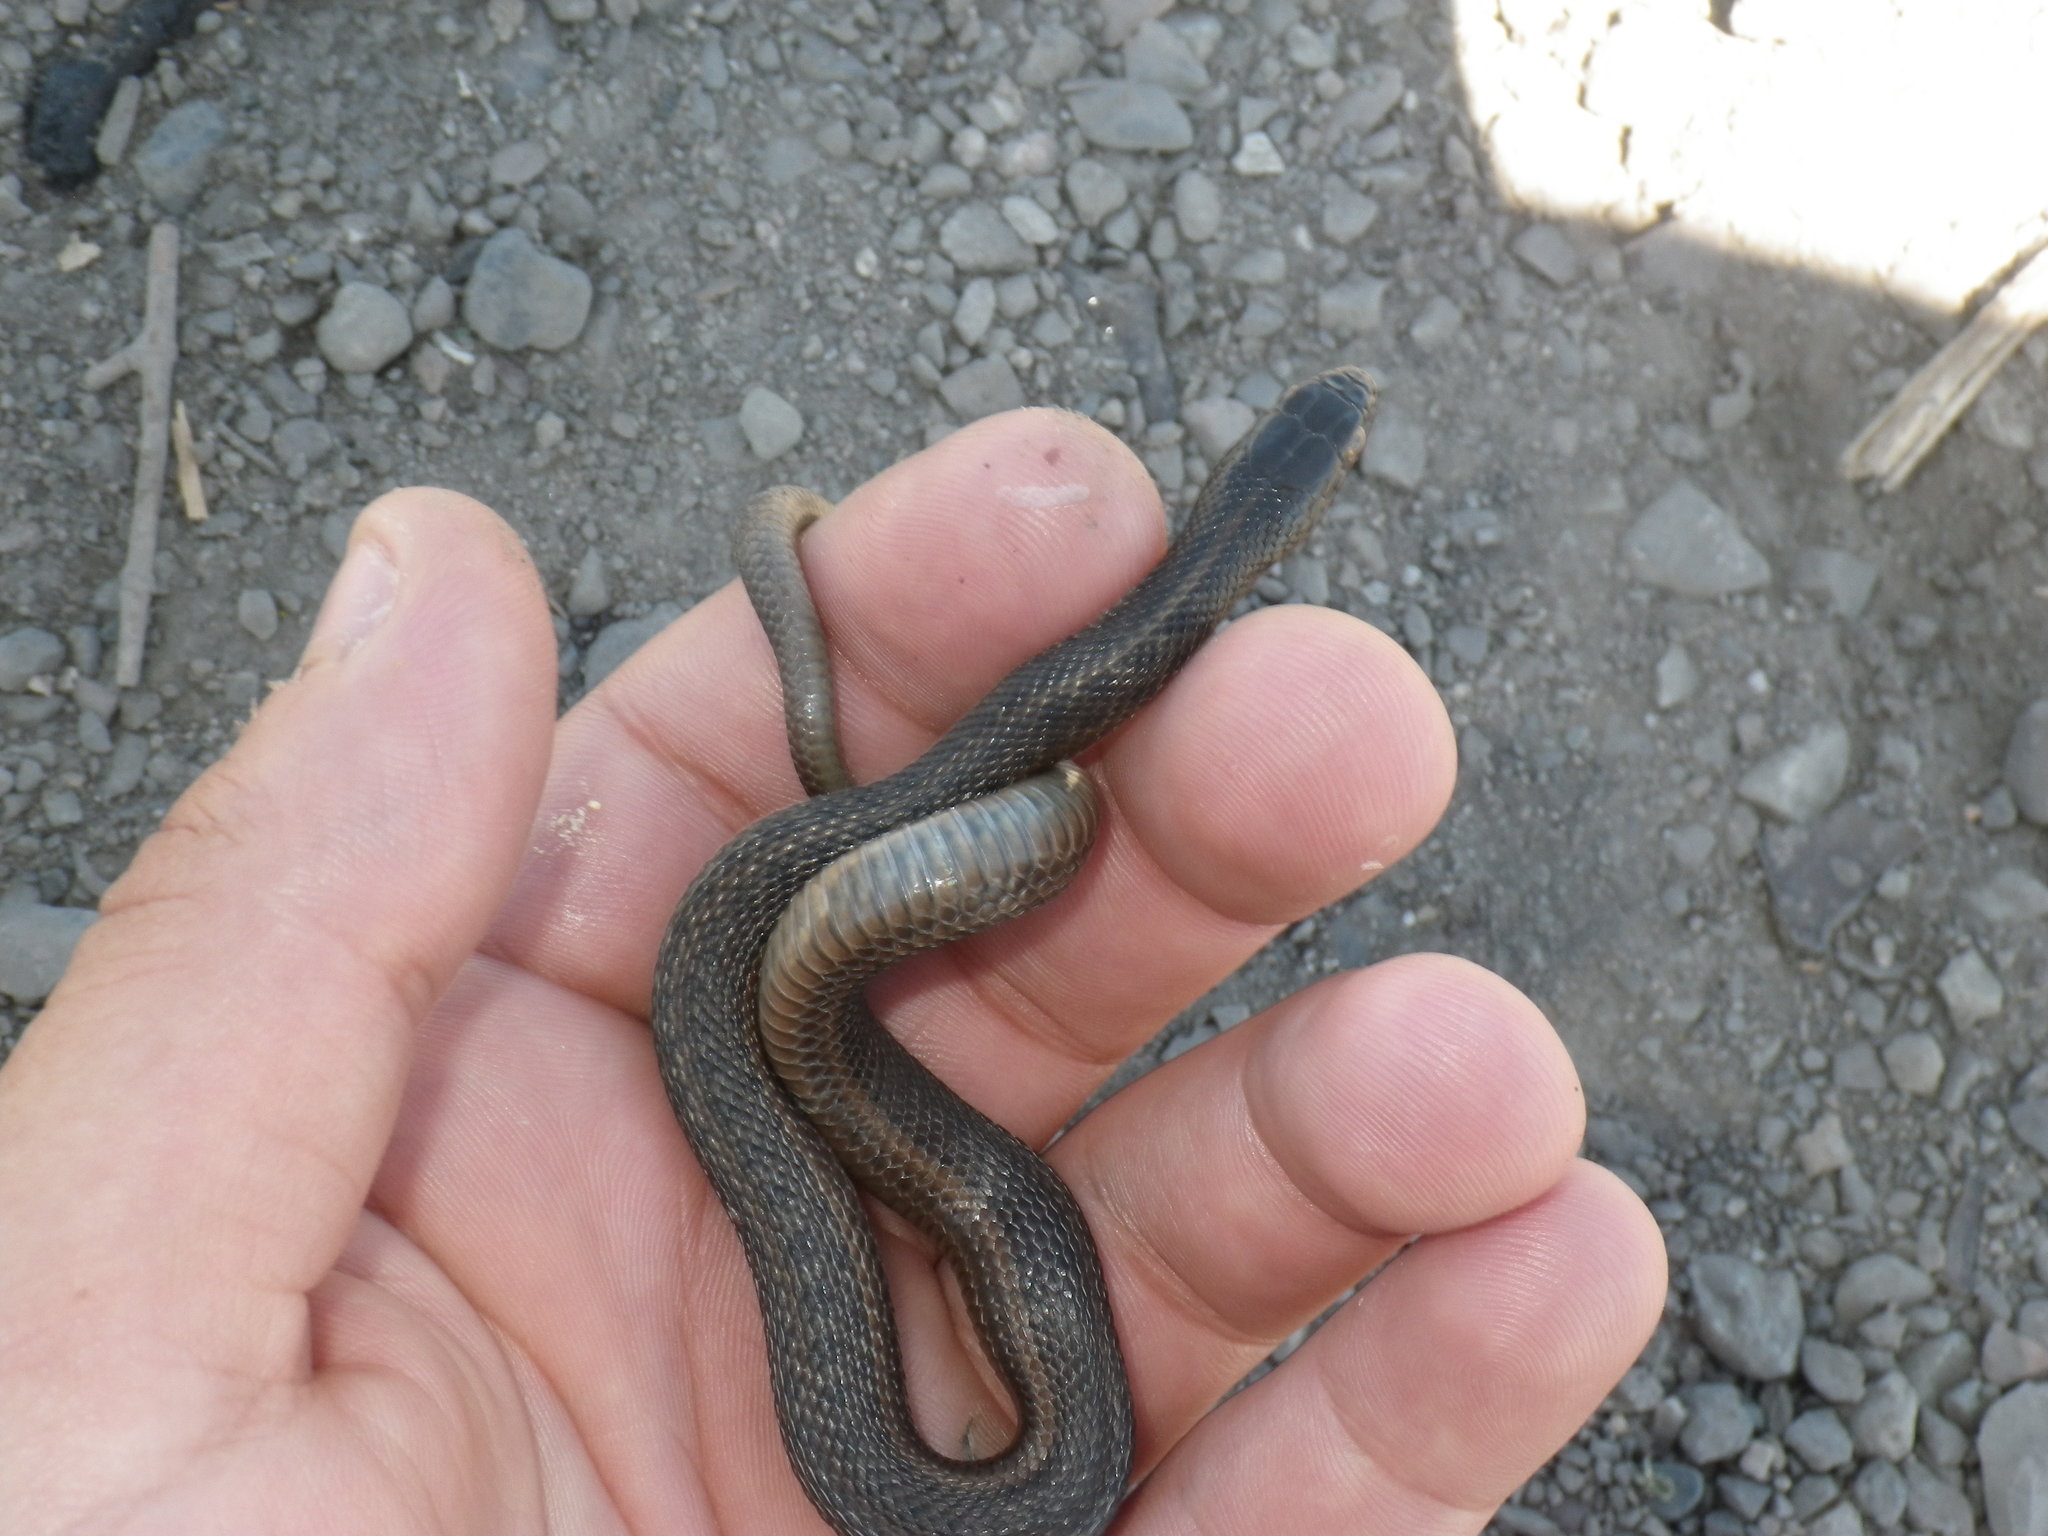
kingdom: Animalia
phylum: Chordata
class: Squamata
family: Colubridae
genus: Thamnophis
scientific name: Thamnophis gigas
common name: Giant garter snake
